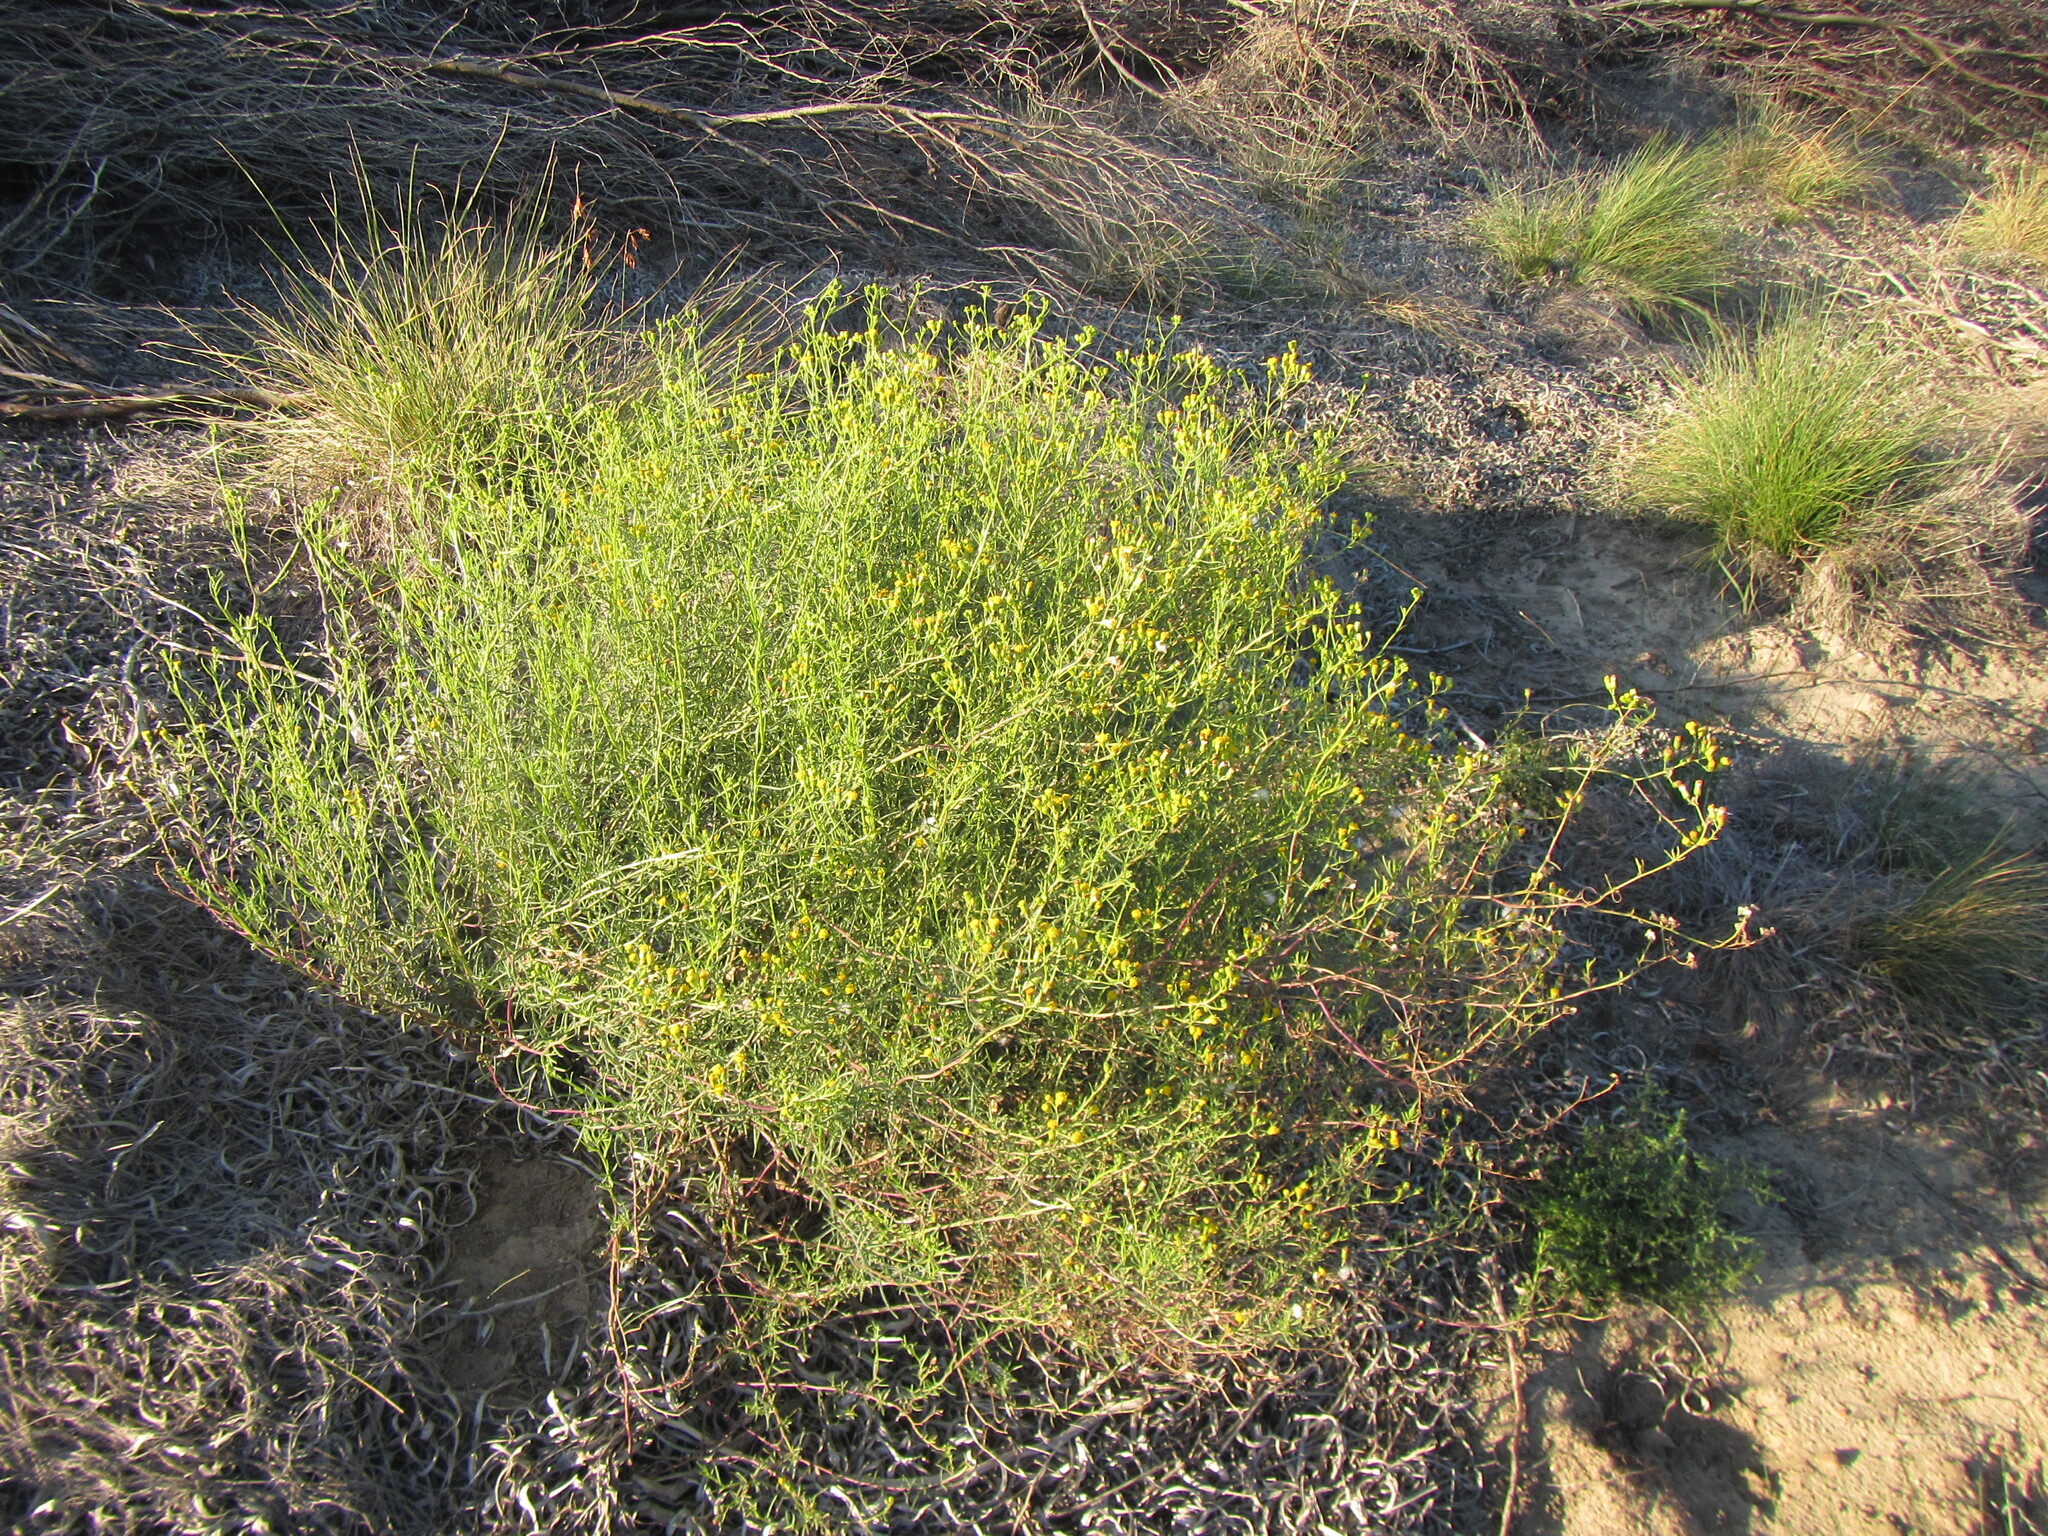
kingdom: Plantae
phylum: Tracheophyta
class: Magnoliopsida
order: Asterales
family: Asteraceae
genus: Senecio
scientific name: Senecio angustifolius
